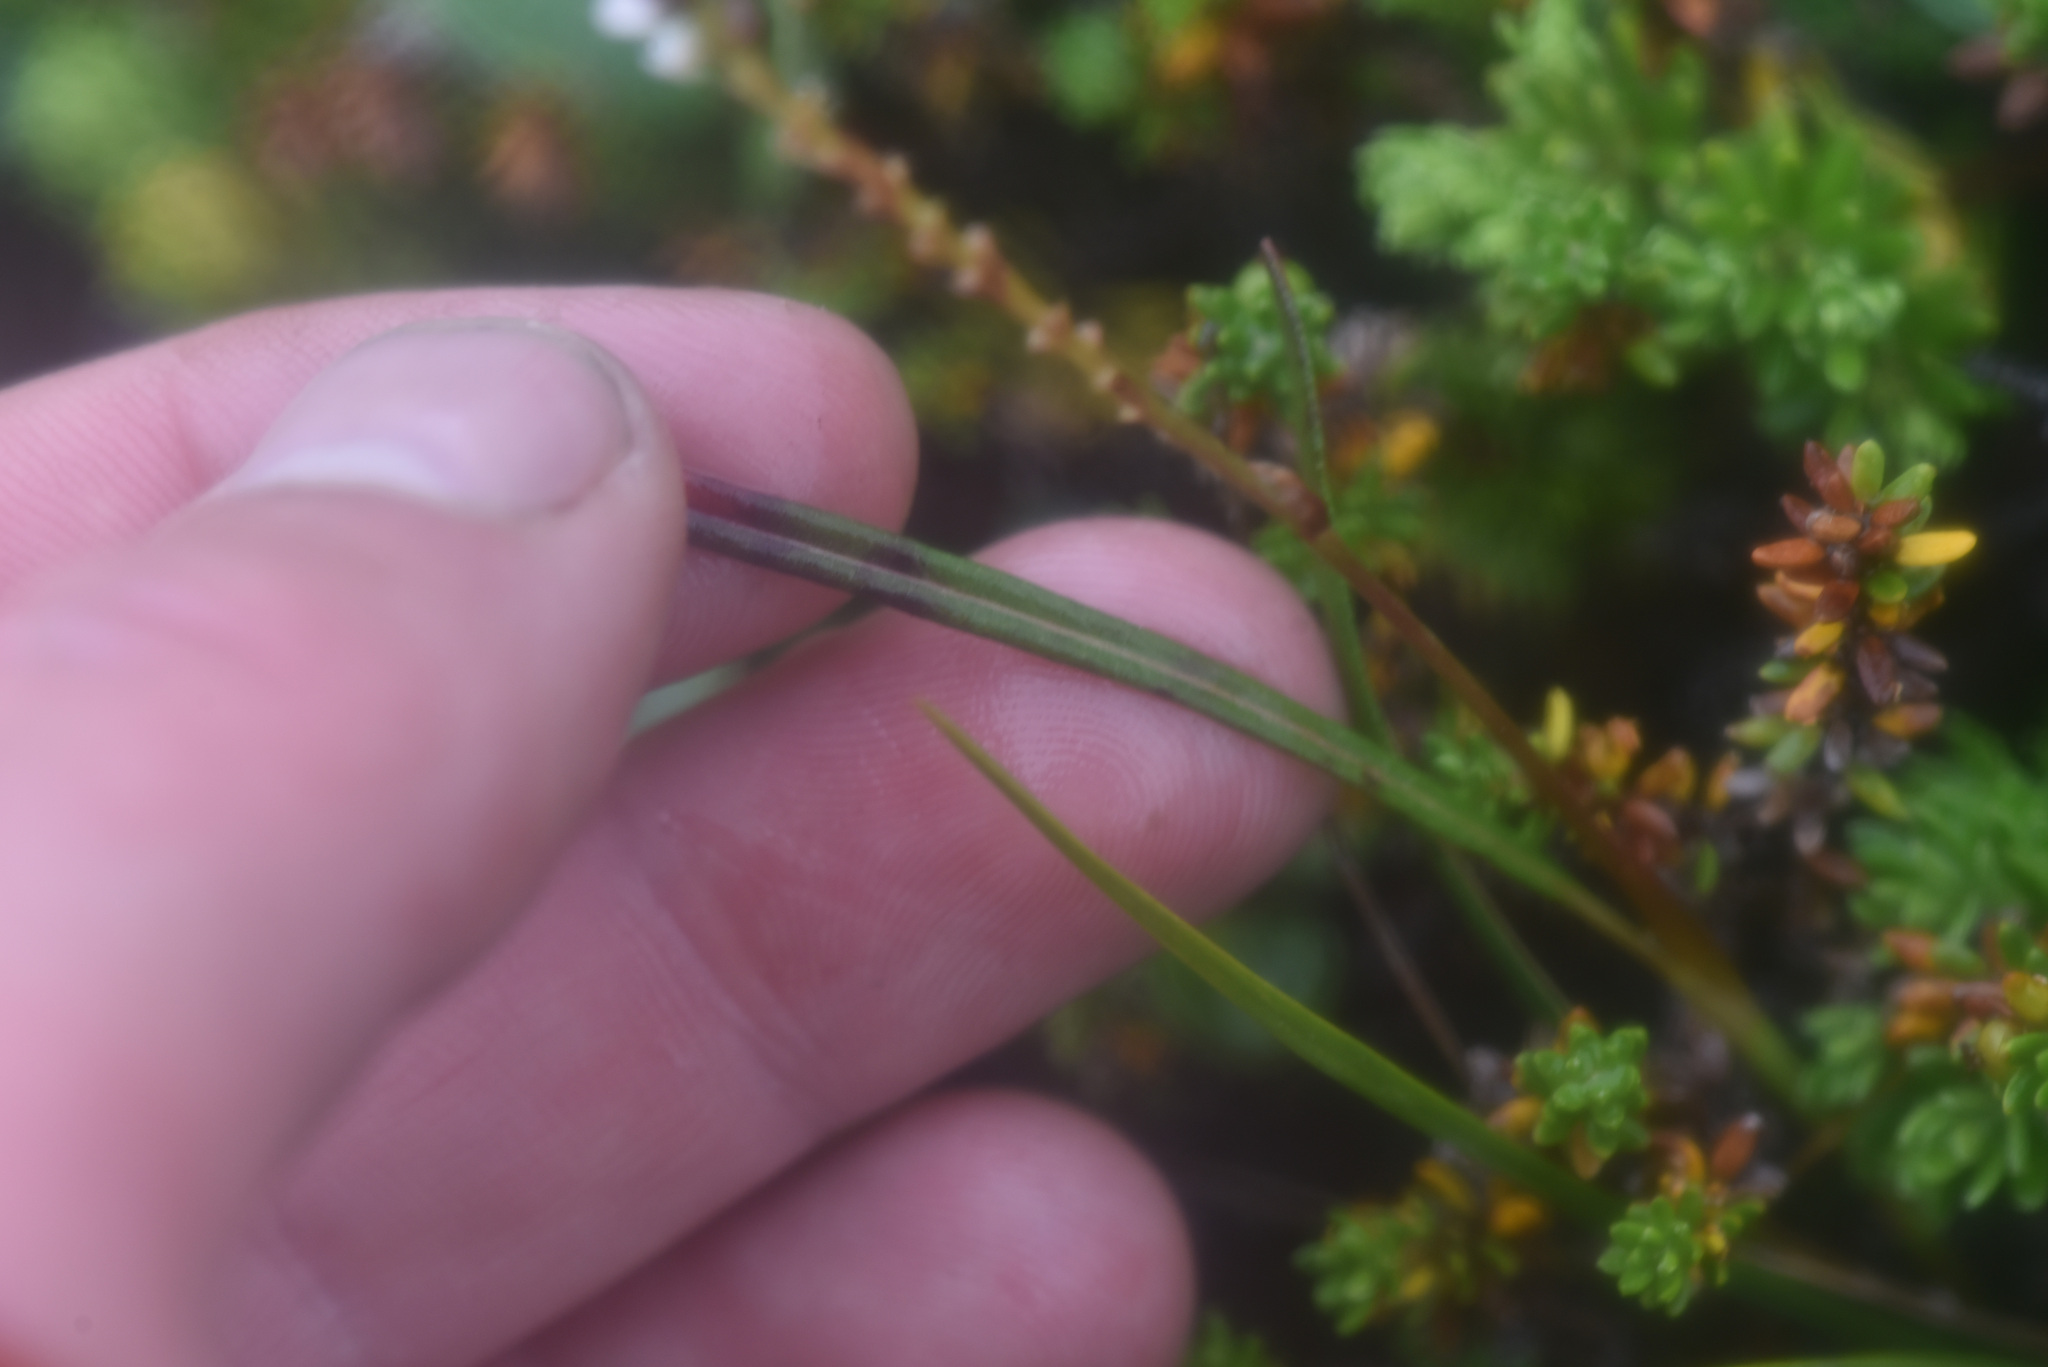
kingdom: Plantae
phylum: Tracheophyta
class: Magnoliopsida
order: Caryophyllales
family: Polygonaceae
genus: Bistorta
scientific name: Bistorta vivipara
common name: Alpine bistort
